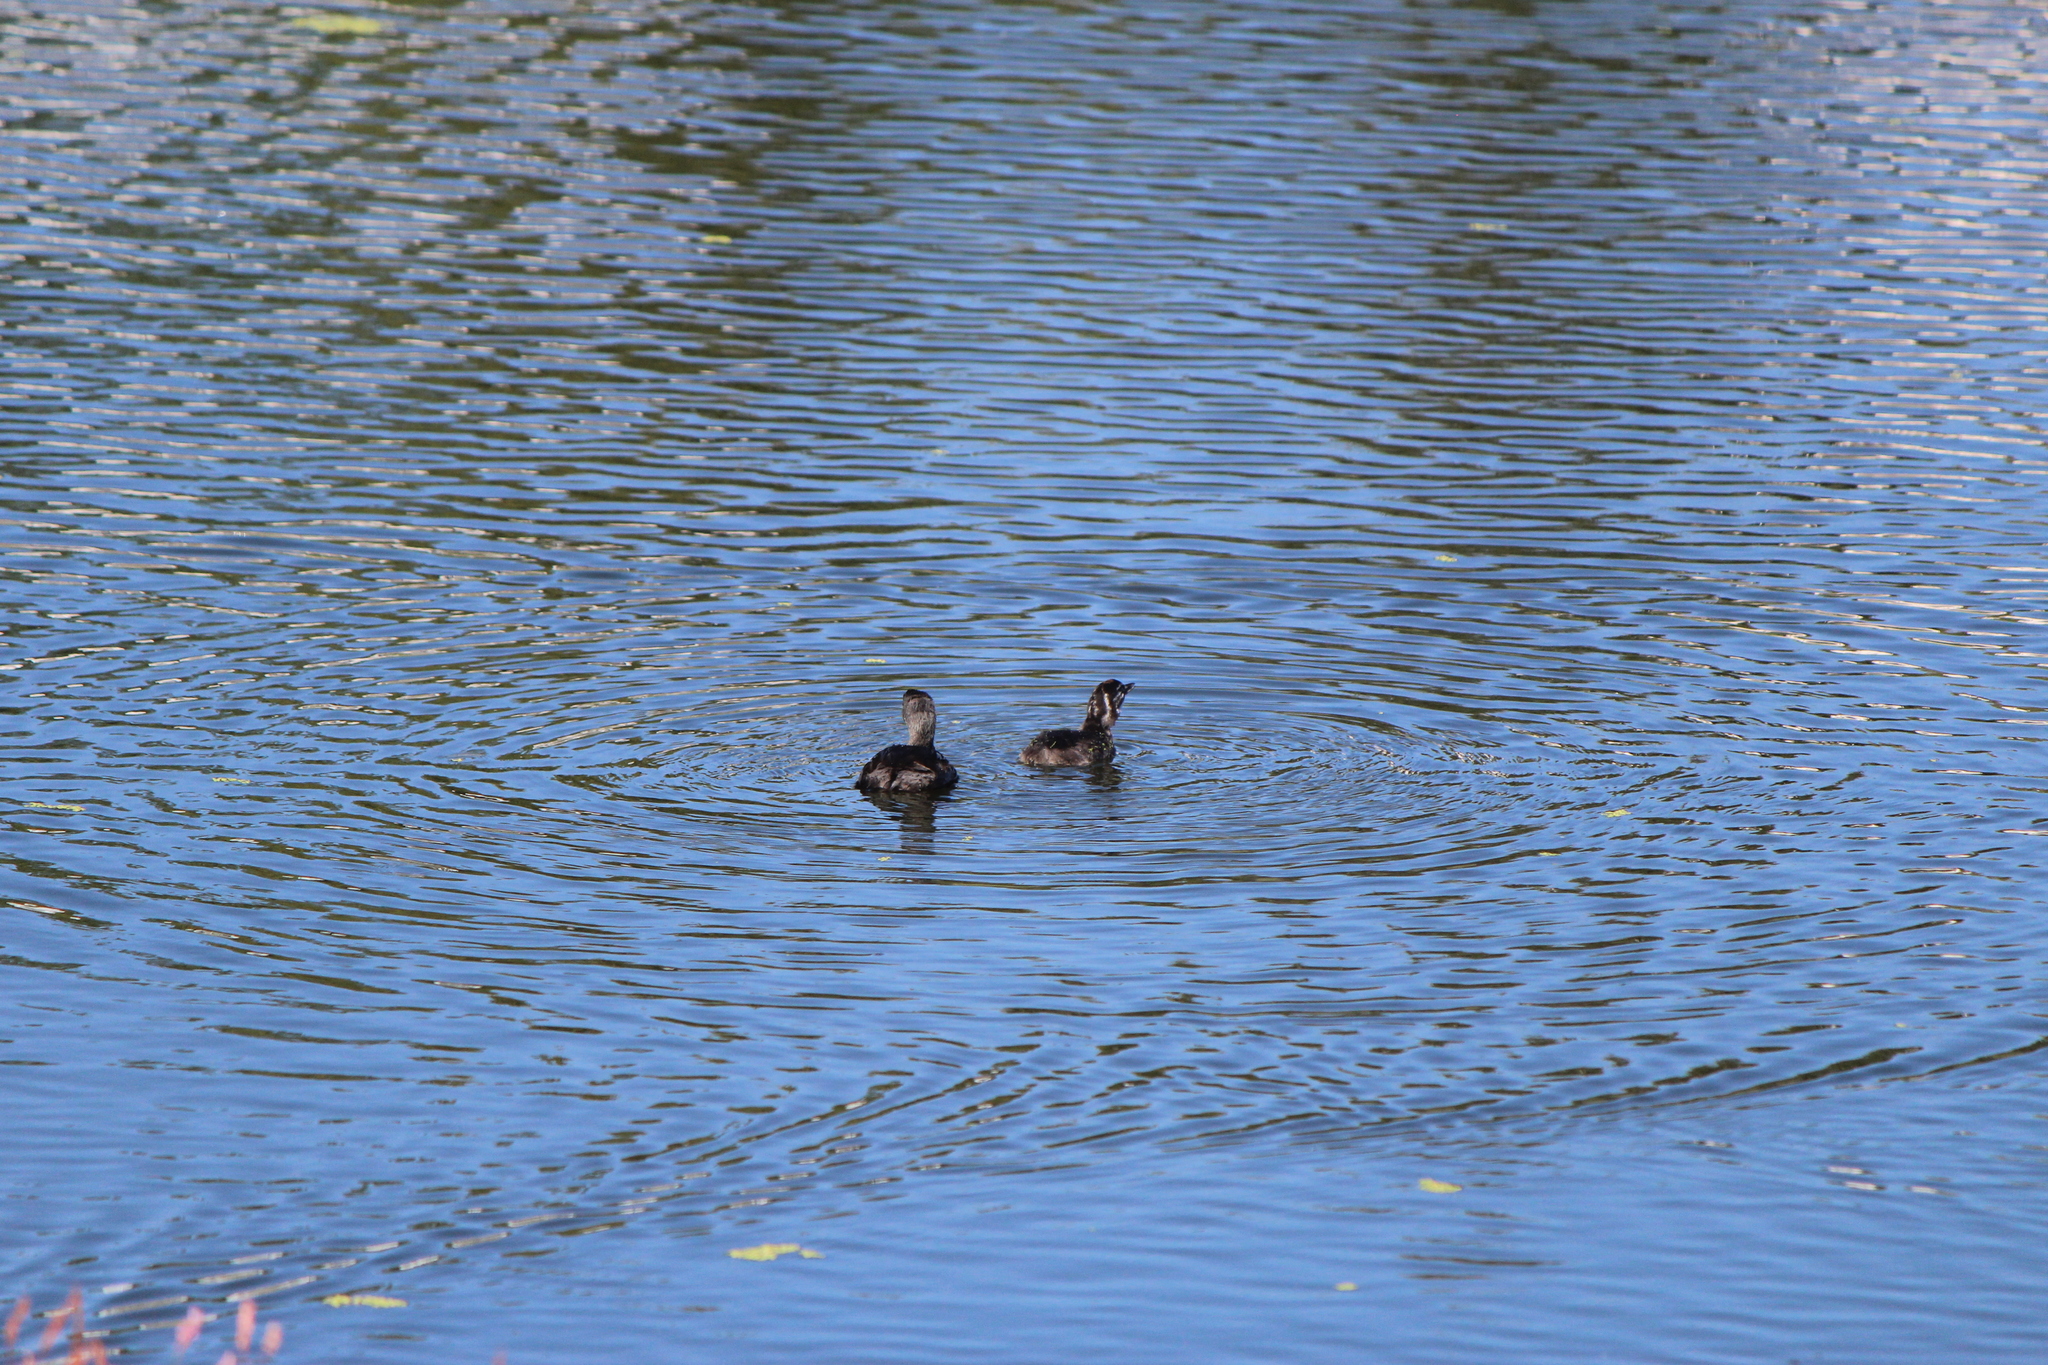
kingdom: Animalia
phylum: Chordata
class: Aves
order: Podicipediformes
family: Podicipedidae
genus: Tachybaptus
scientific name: Tachybaptus dominicus
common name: Least grebe
